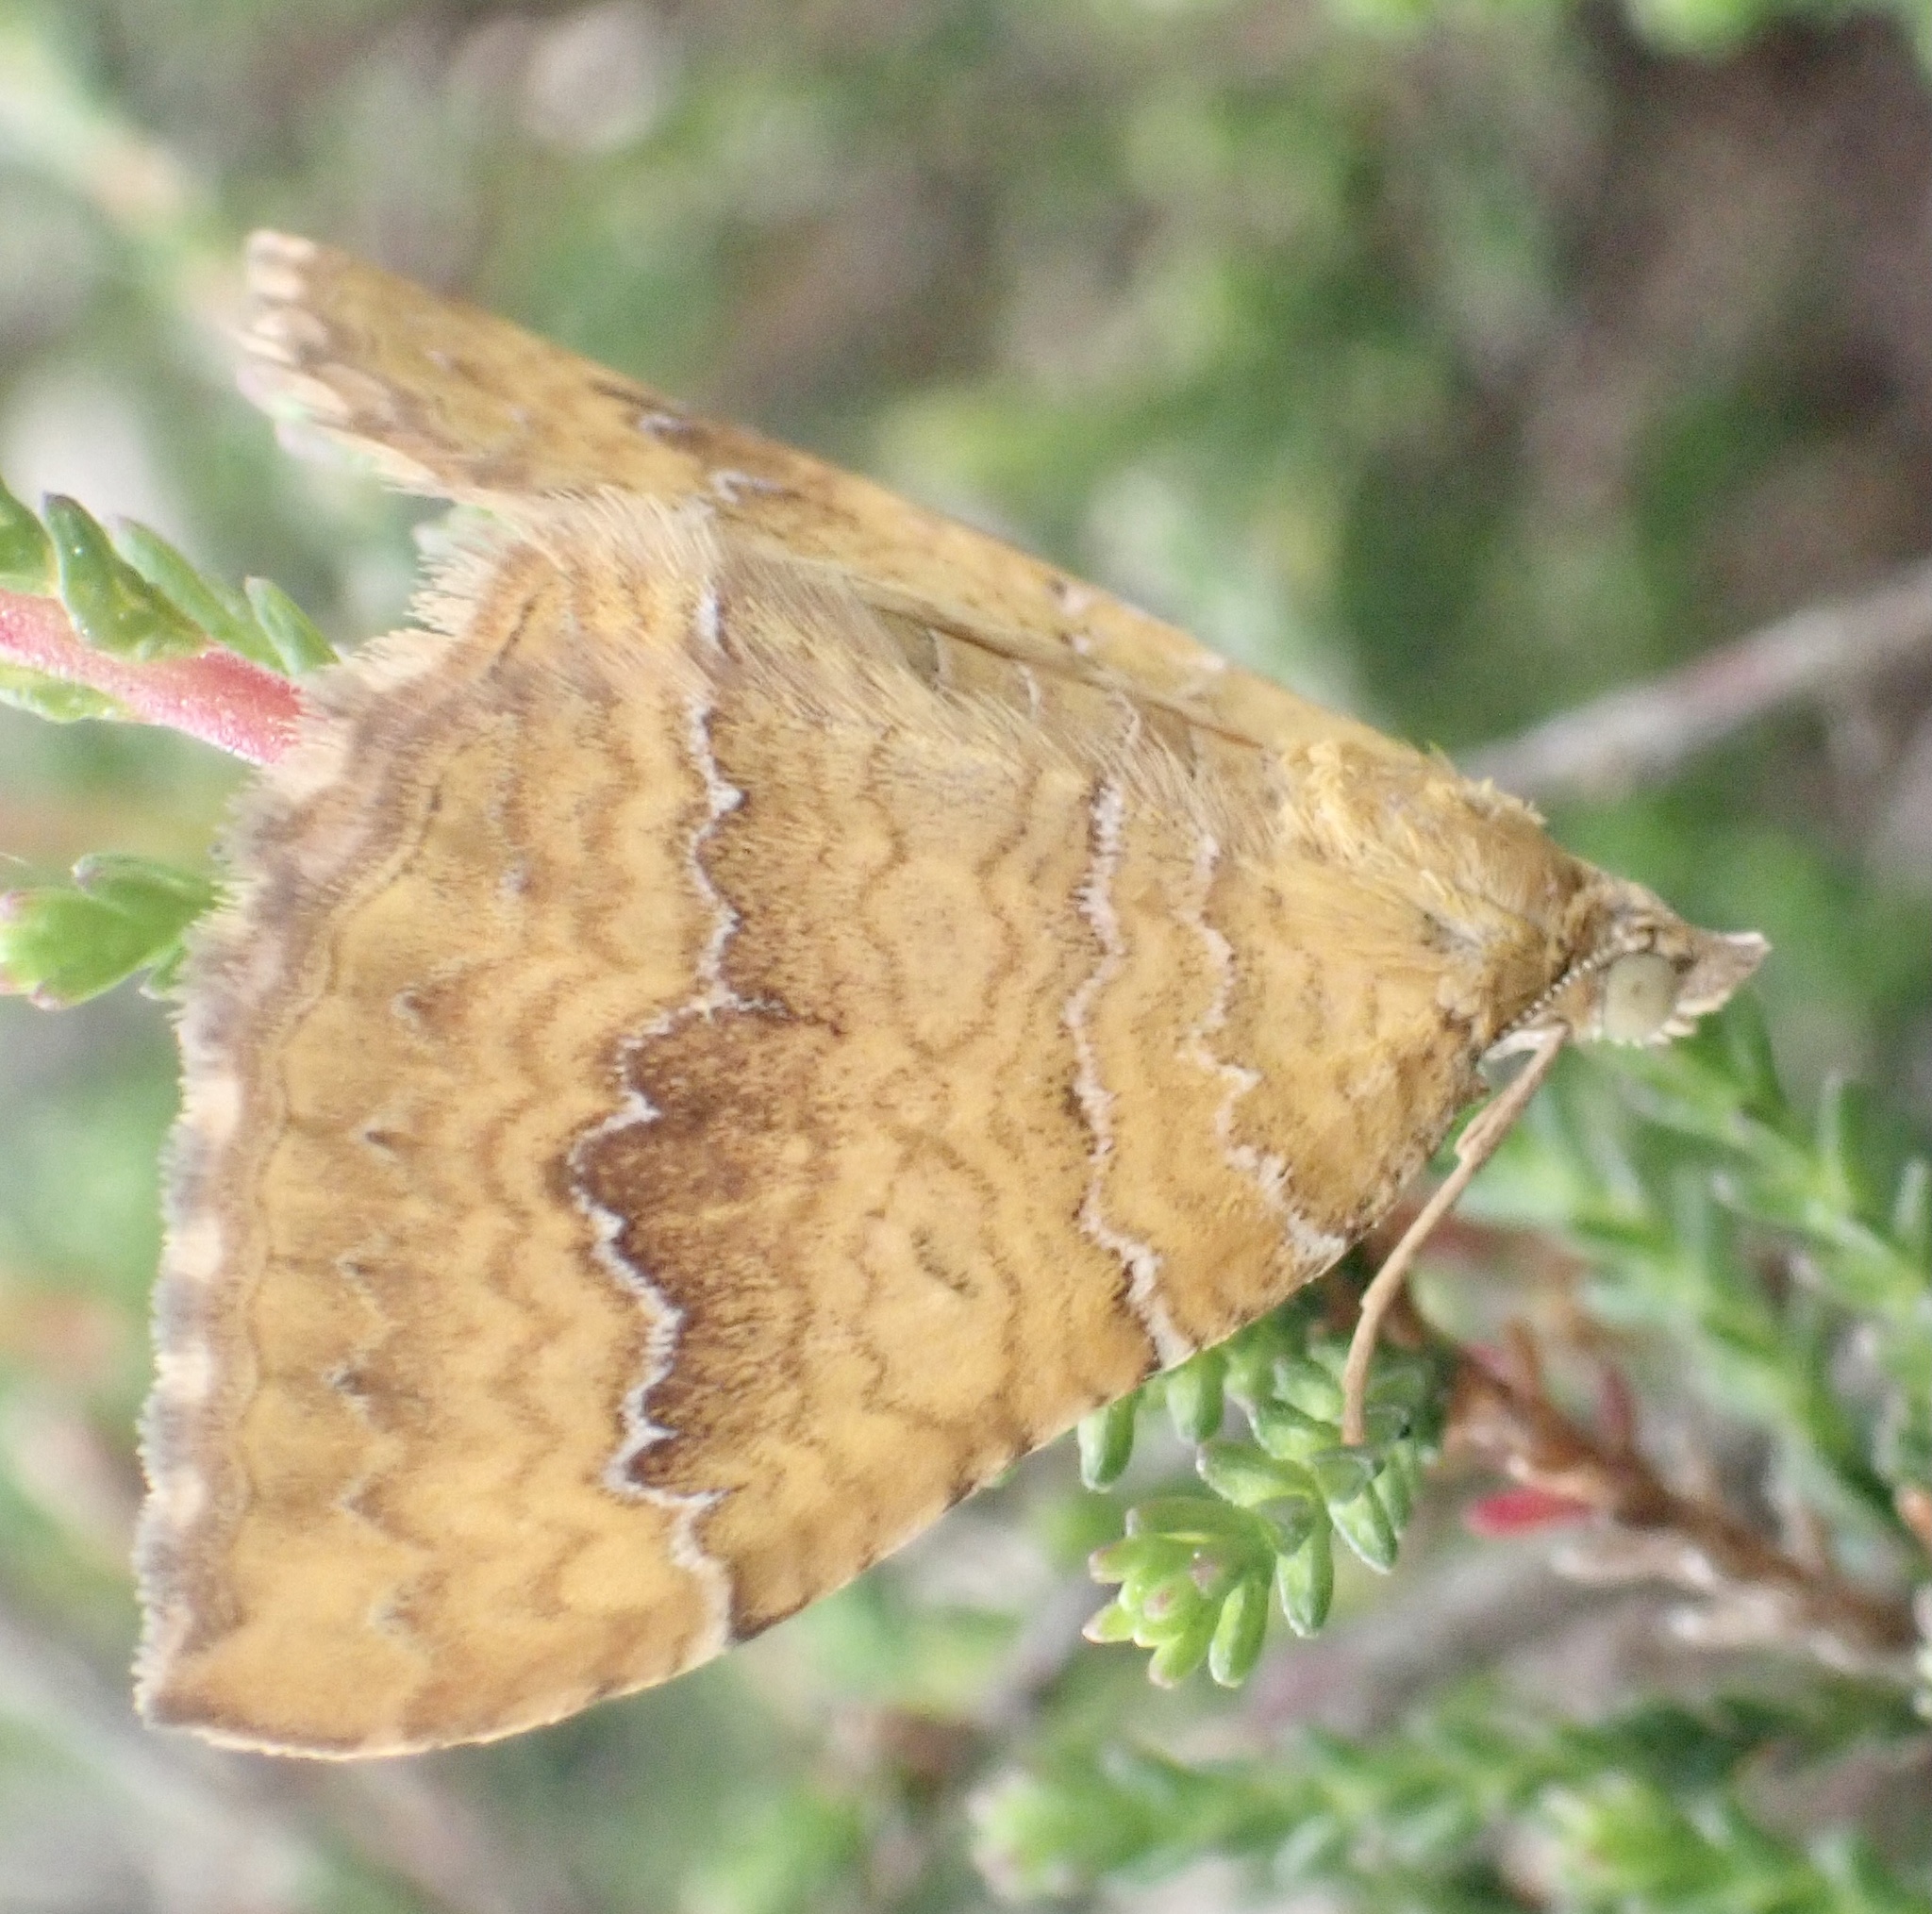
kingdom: Animalia
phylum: Arthropoda
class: Insecta
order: Lepidoptera
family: Geometridae
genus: Camptogramma
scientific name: Camptogramma bilineata
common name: Yellow shell
